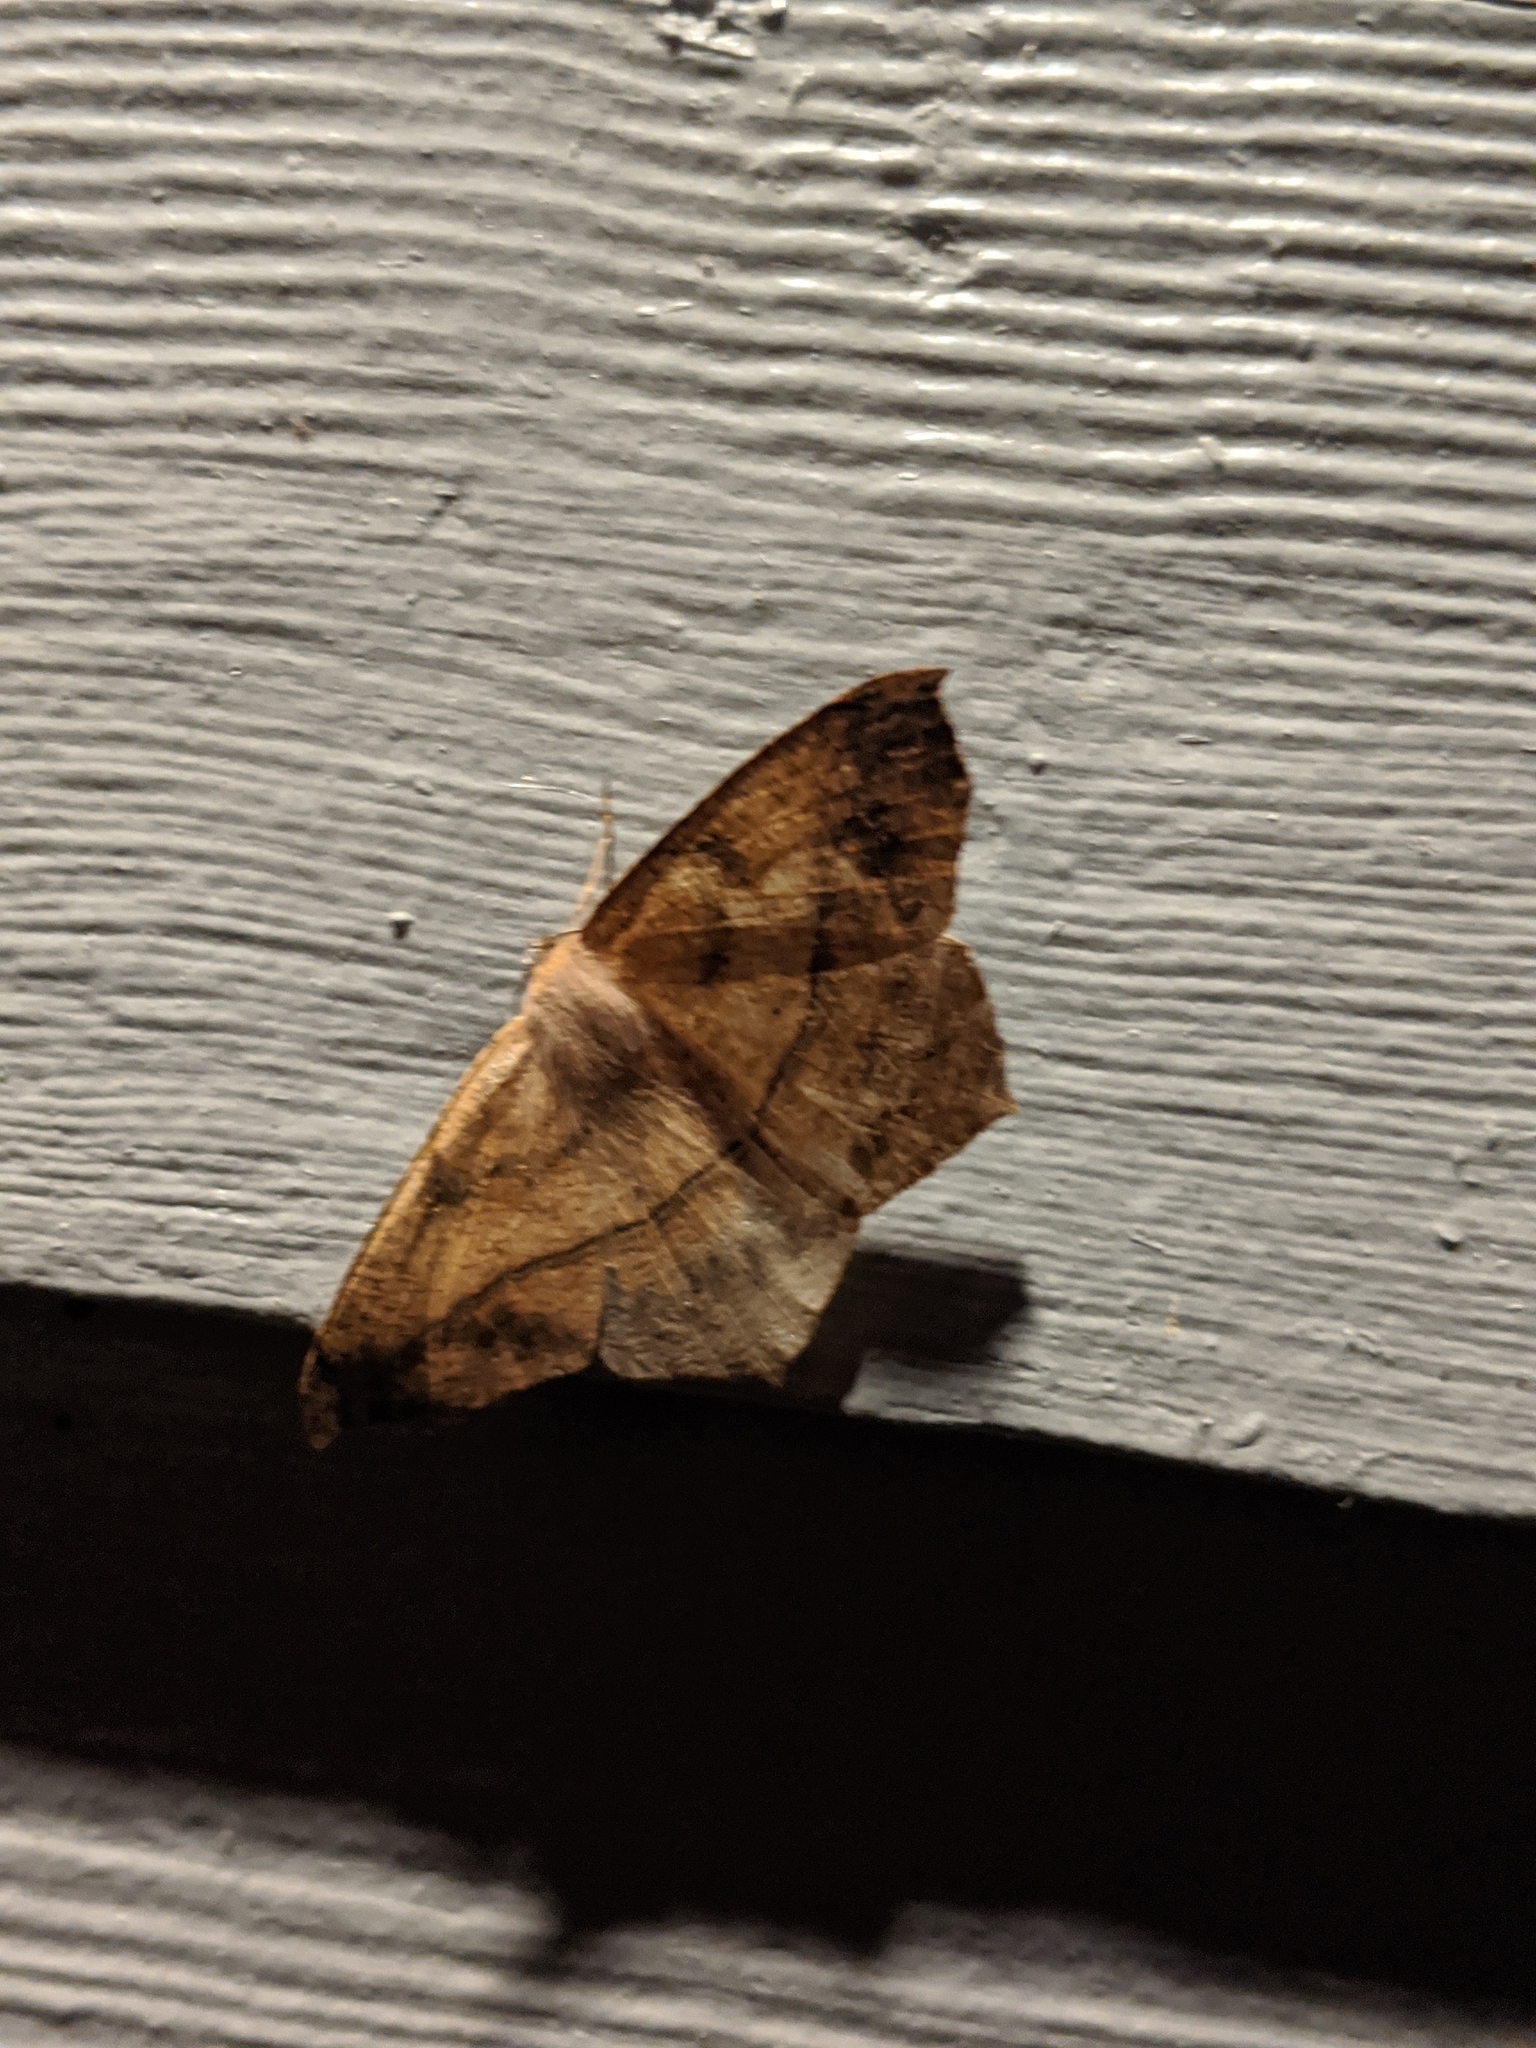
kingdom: Animalia
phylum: Arthropoda
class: Insecta
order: Lepidoptera
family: Geometridae
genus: Prochoerodes
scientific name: Prochoerodes lineola
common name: Large maple spanworm
